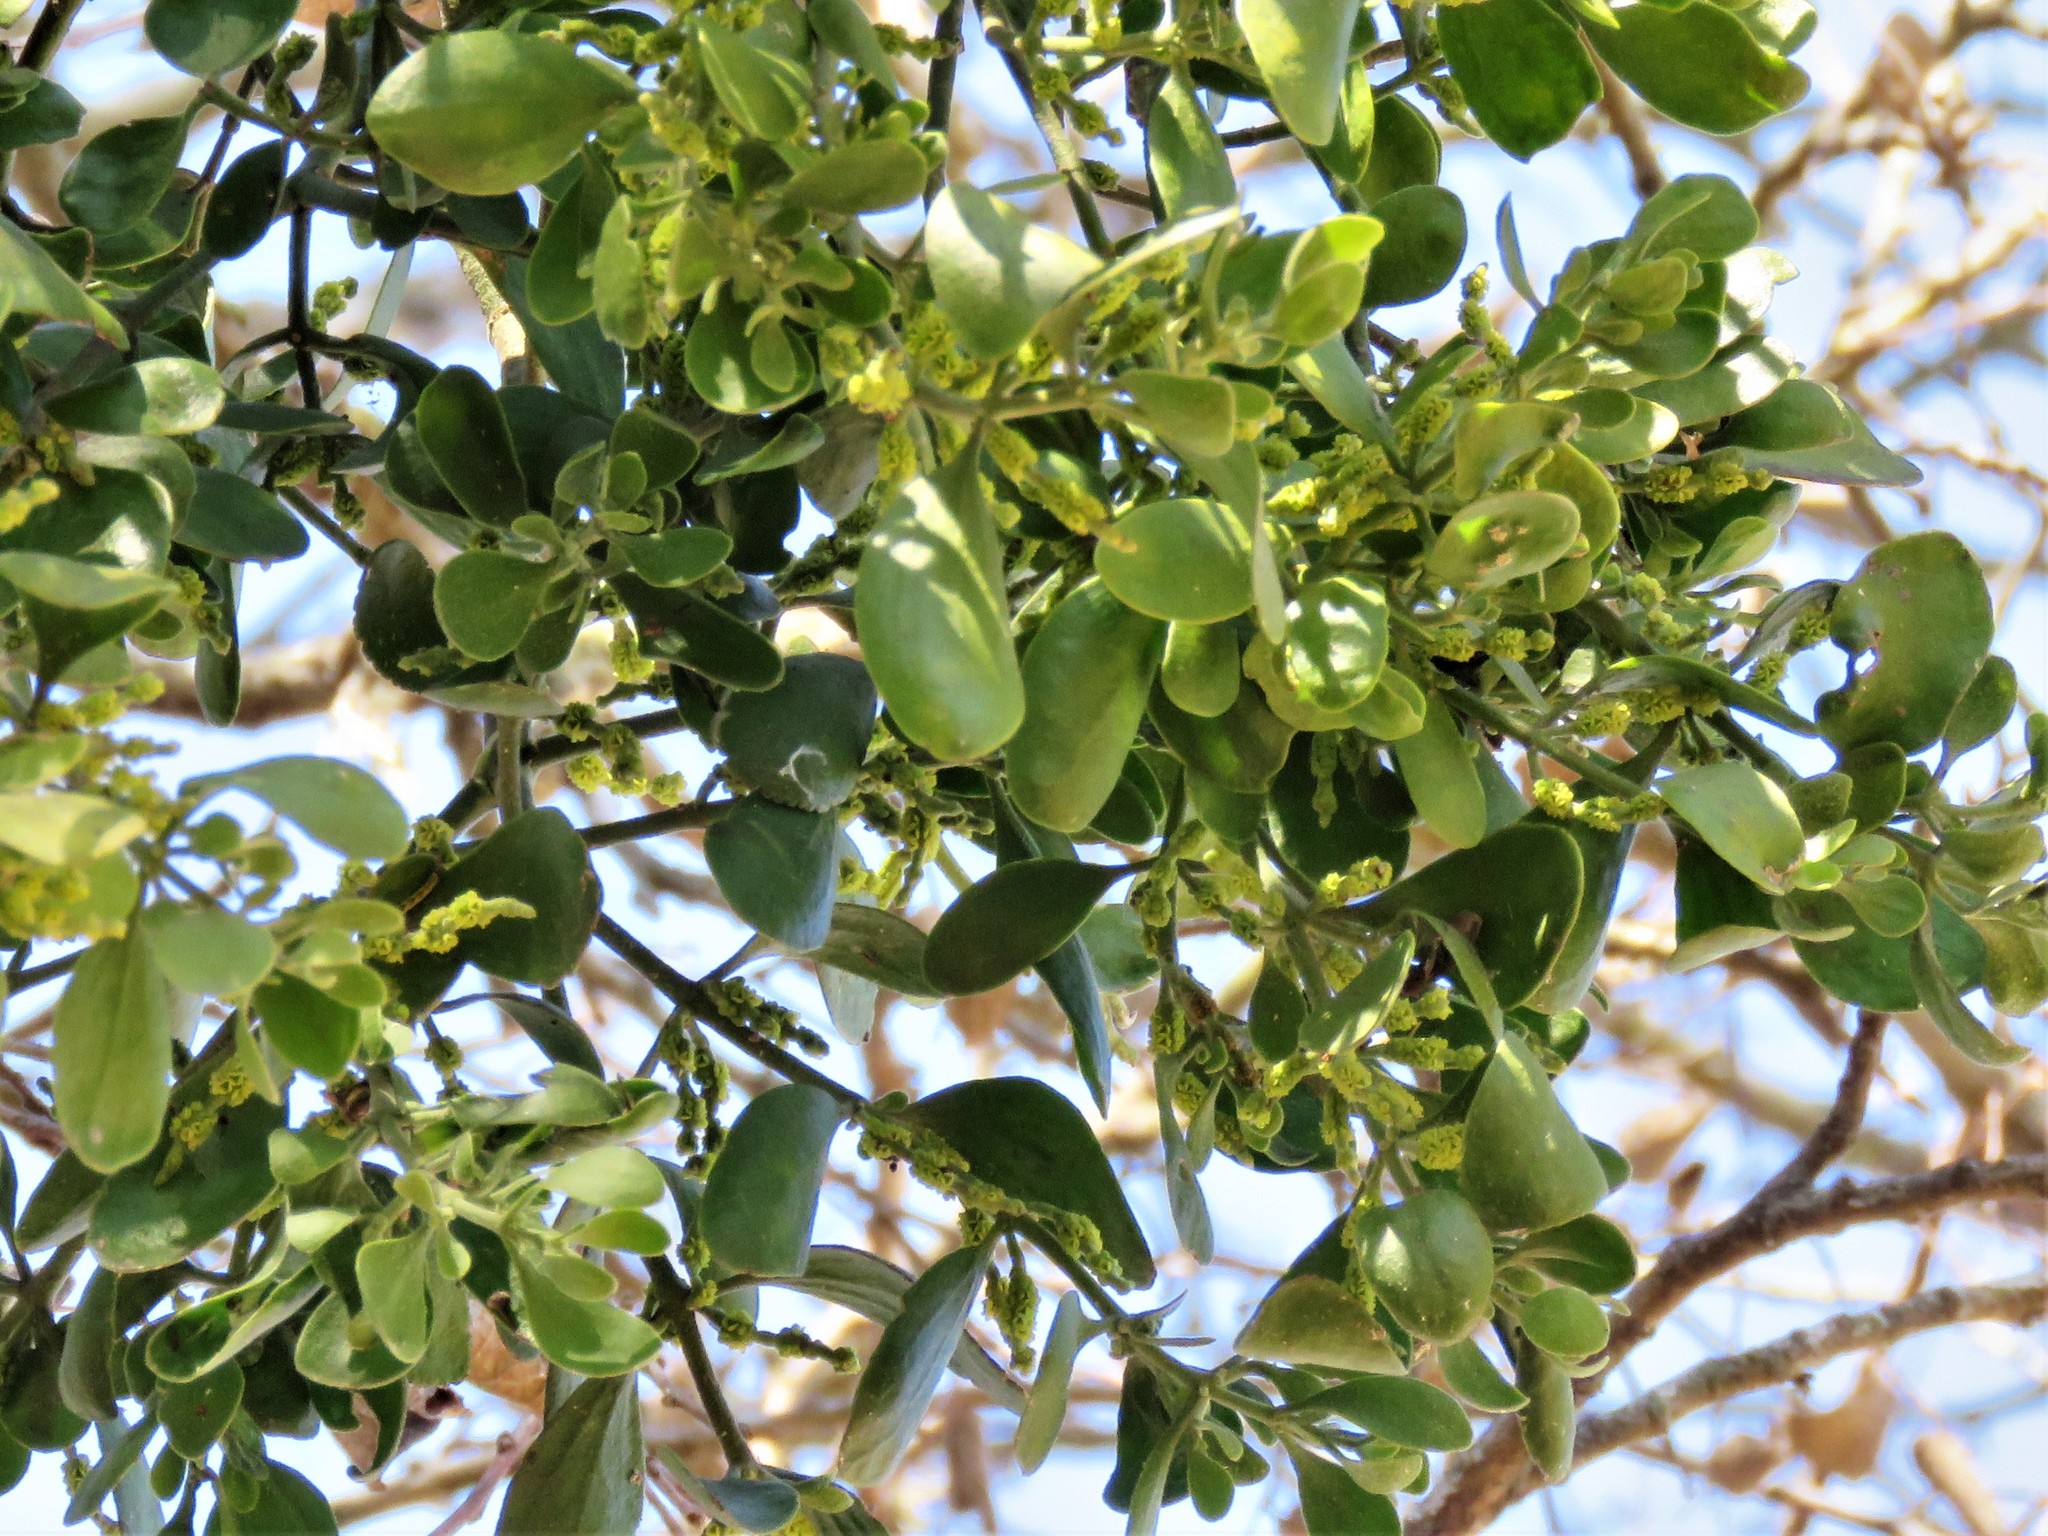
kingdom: Plantae
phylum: Tracheophyta
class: Magnoliopsida
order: Santalales
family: Viscaceae
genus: Phoradendron
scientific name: Phoradendron leucarpum
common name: Pacific mistletoe
